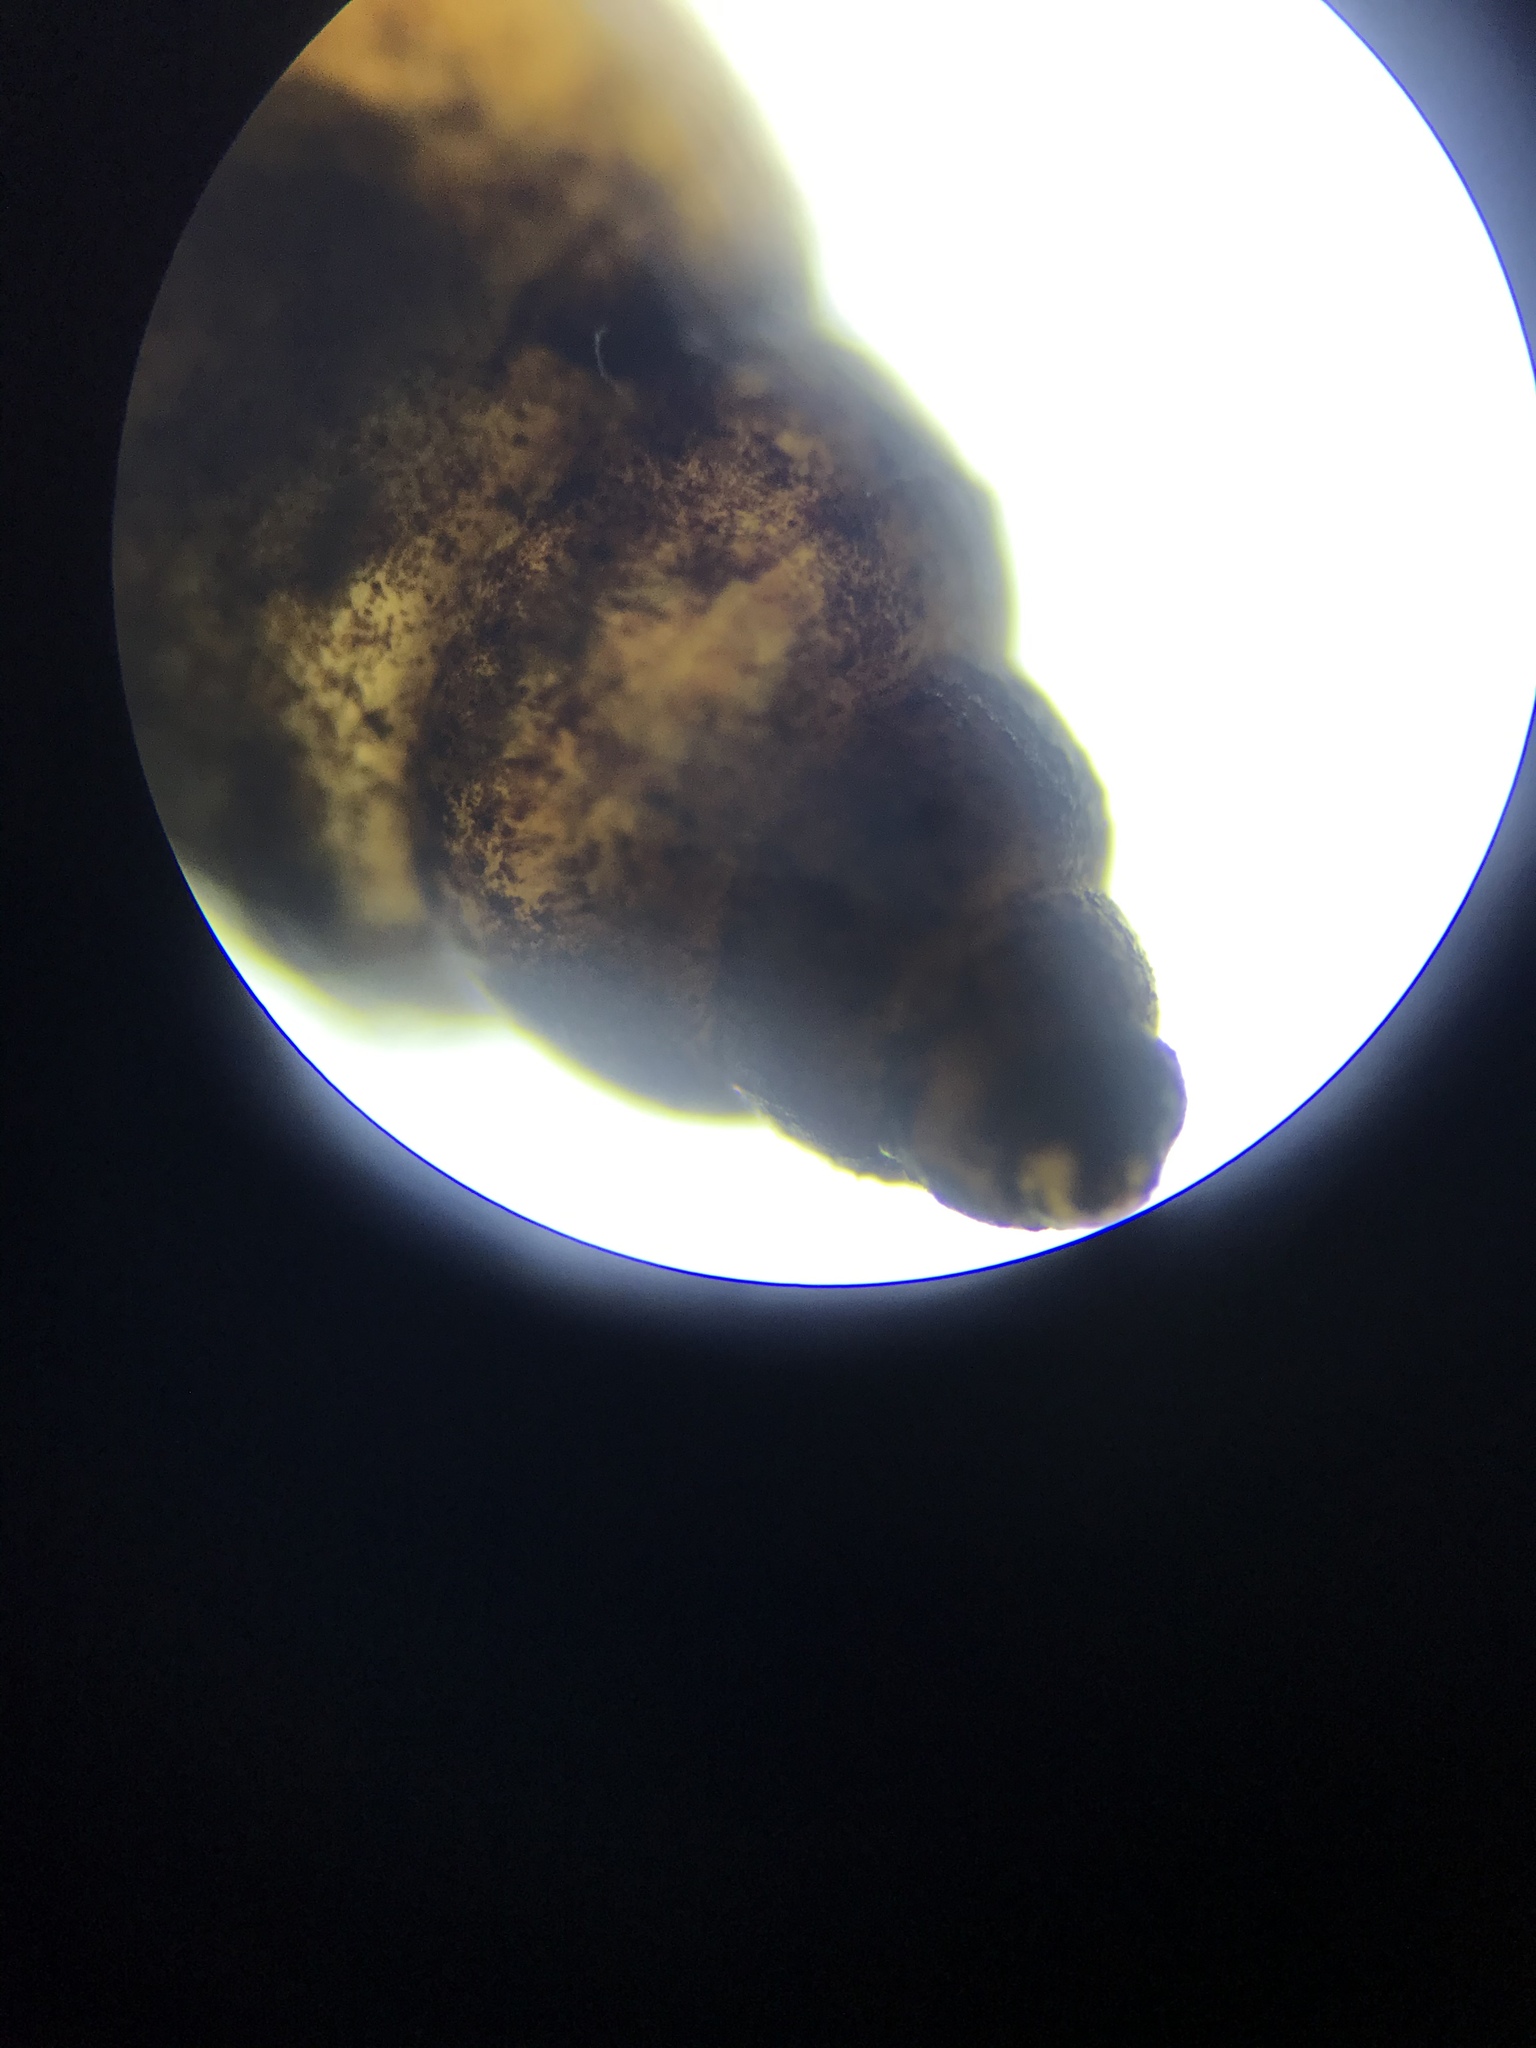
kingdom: Animalia
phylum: Mollusca
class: Gastropoda
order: Littorinimorpha
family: Tateidae
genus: Potamopyrgus
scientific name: Potamopyrgus antipodarum
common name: Jenkins' spire snail
